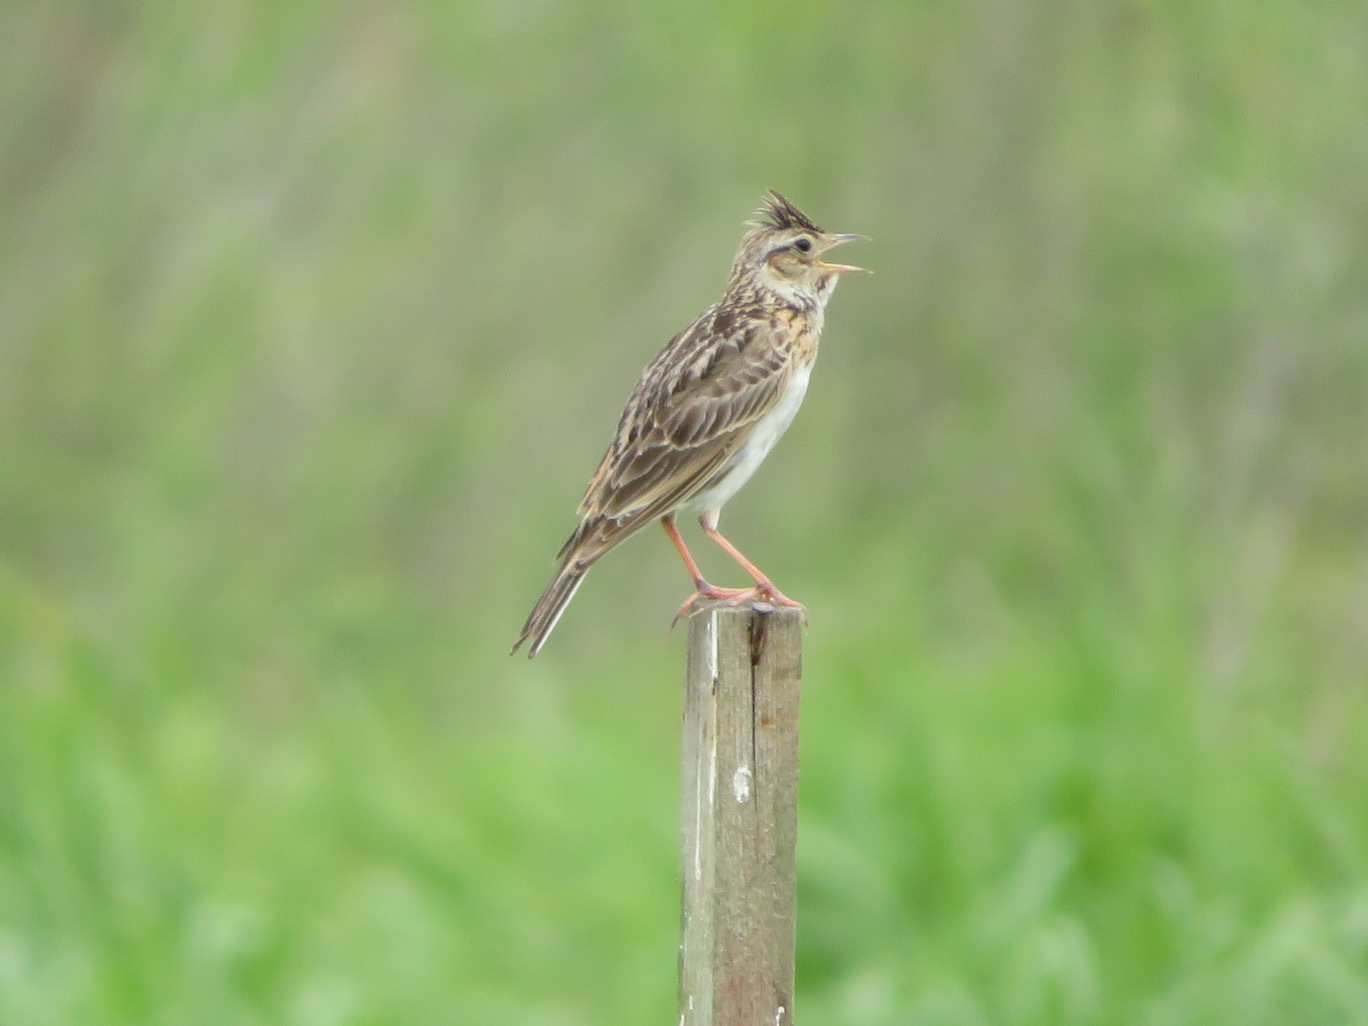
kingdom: Animalia
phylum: Chordata
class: Aves
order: Passeriformes
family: Alaudidae
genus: Alauda
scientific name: Alauda arvensis
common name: Eurasian skylark
